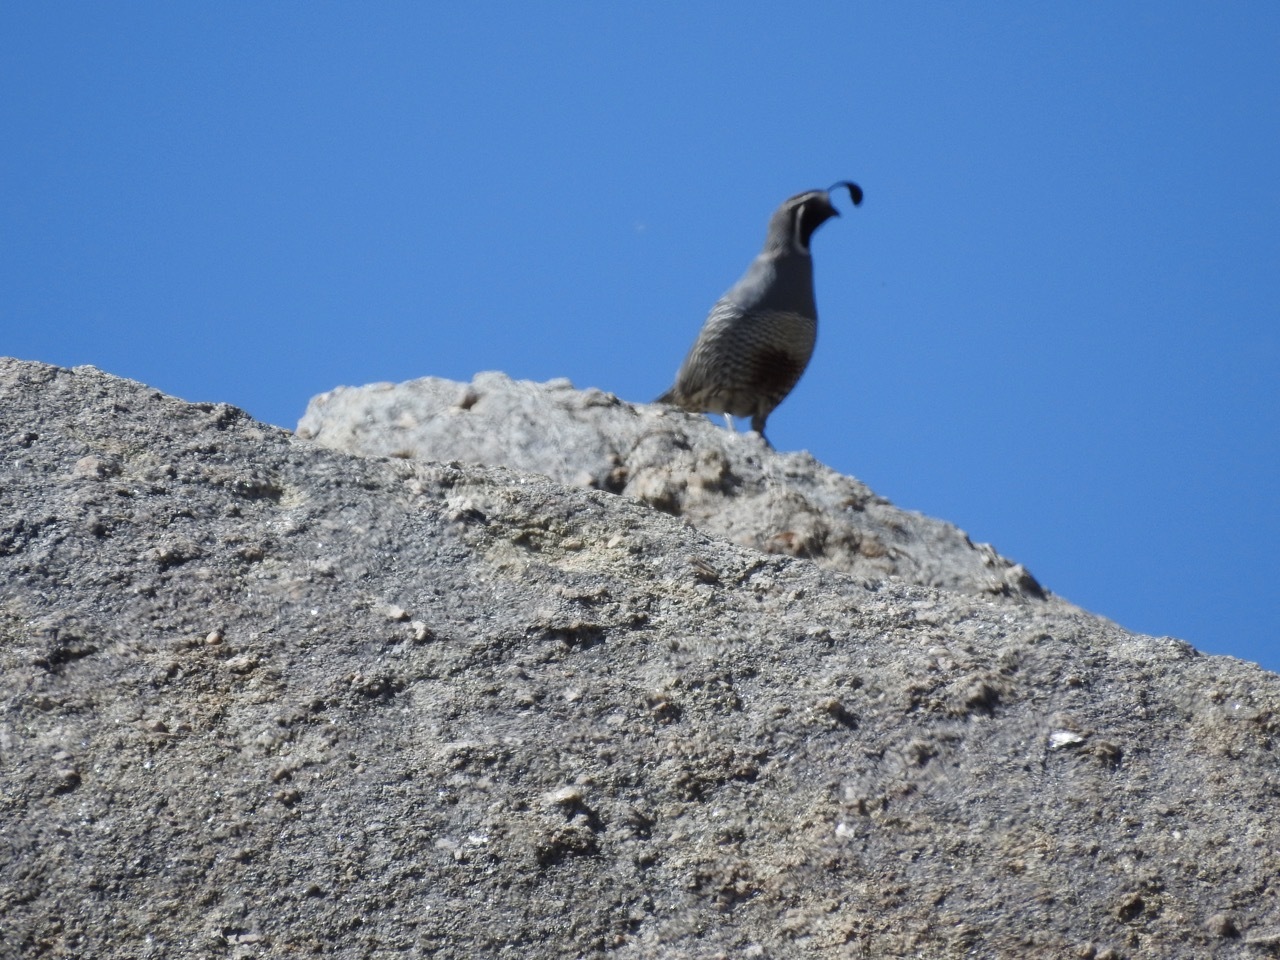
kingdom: Animalia
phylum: Chordata
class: Aves
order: Galliformes
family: Odontophoridae
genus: Callipepla
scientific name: Callipepla californica
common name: California quail
